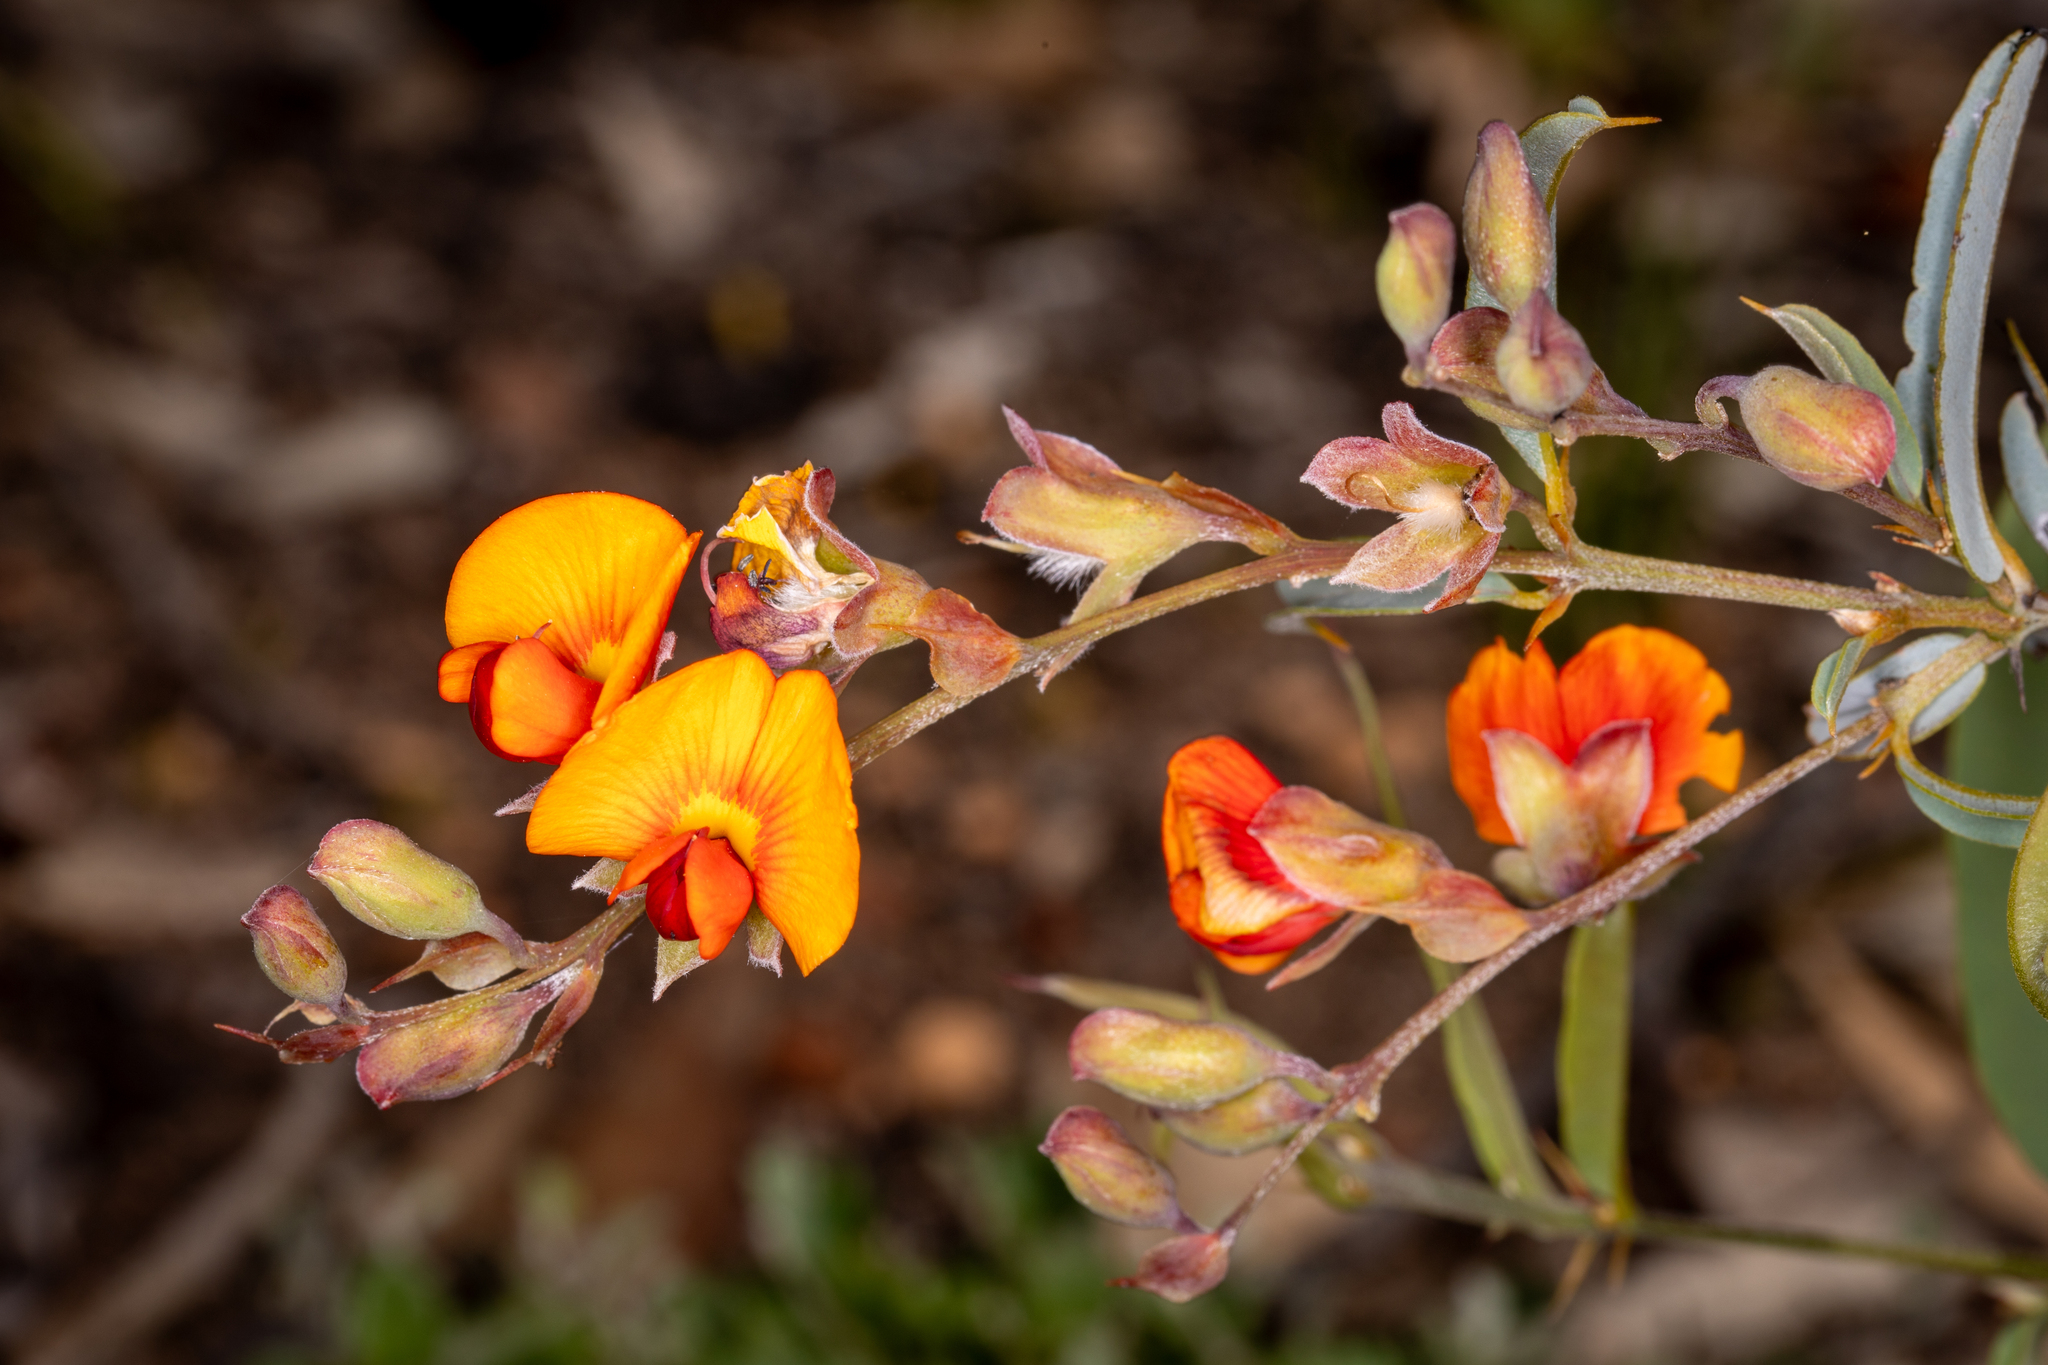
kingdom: Plantae
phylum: Tracheophyta
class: Magnoliopsida
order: Fabales
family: Fabaceae
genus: Gastrolobium
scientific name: Gastrolobium calycinum
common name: York road poison
